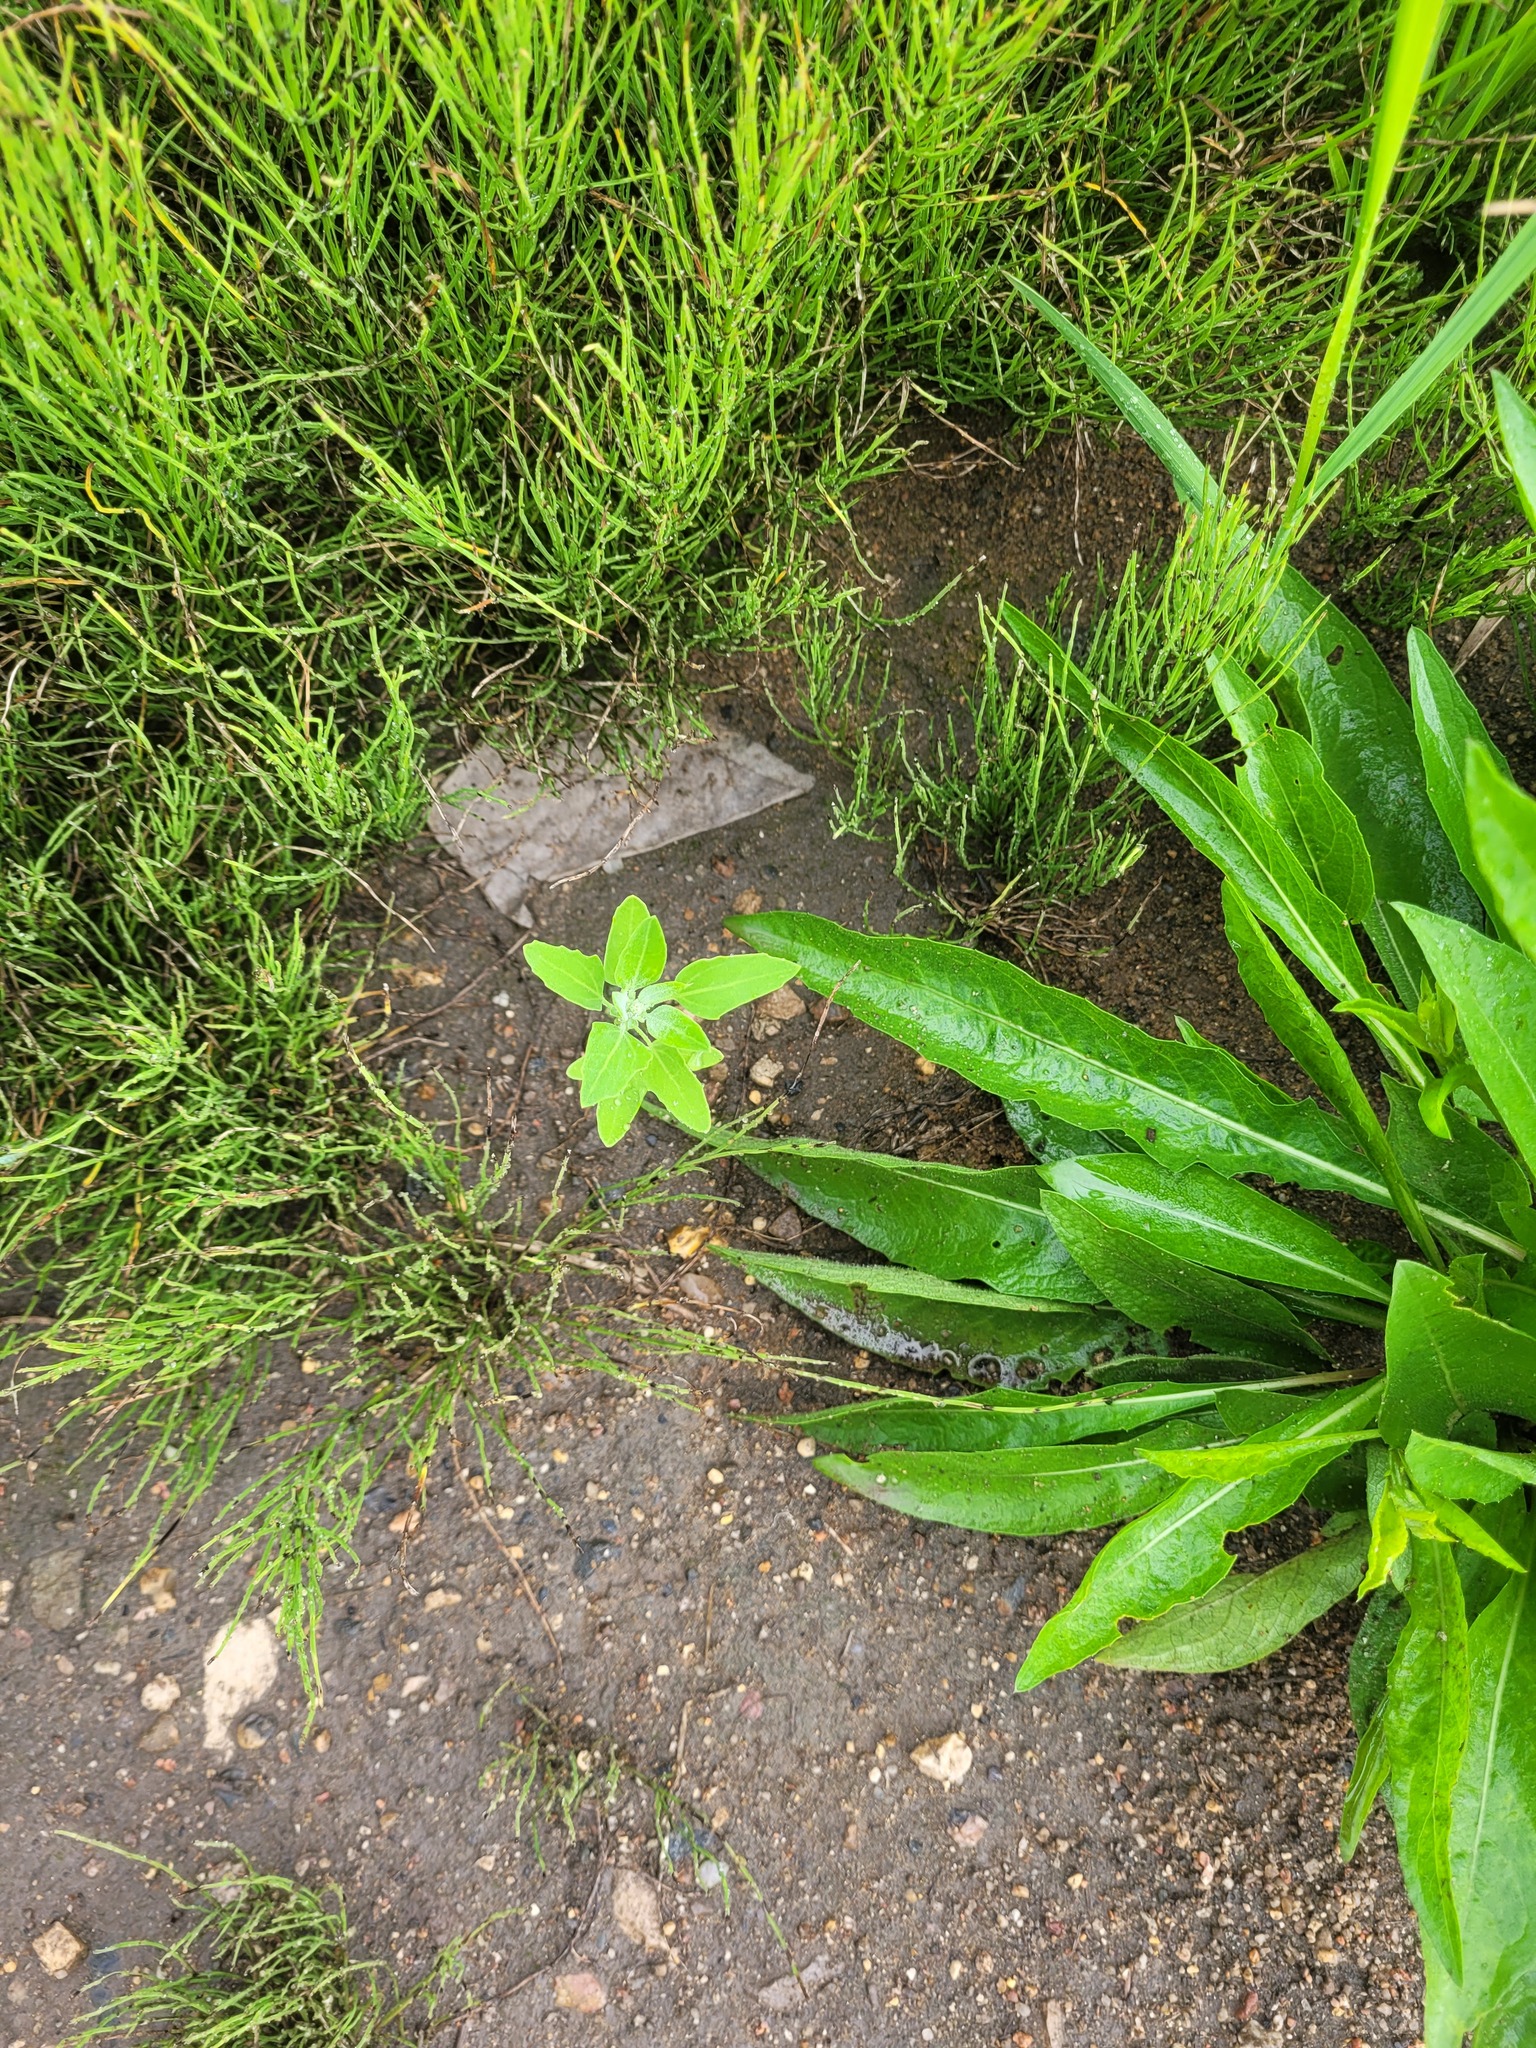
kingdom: Plantae
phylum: Tracheophyta
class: Magnoliopsida
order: Caryophyllales
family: Amaranthaceae
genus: Chenopodium
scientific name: Chenopodium album
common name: Fat-hen
